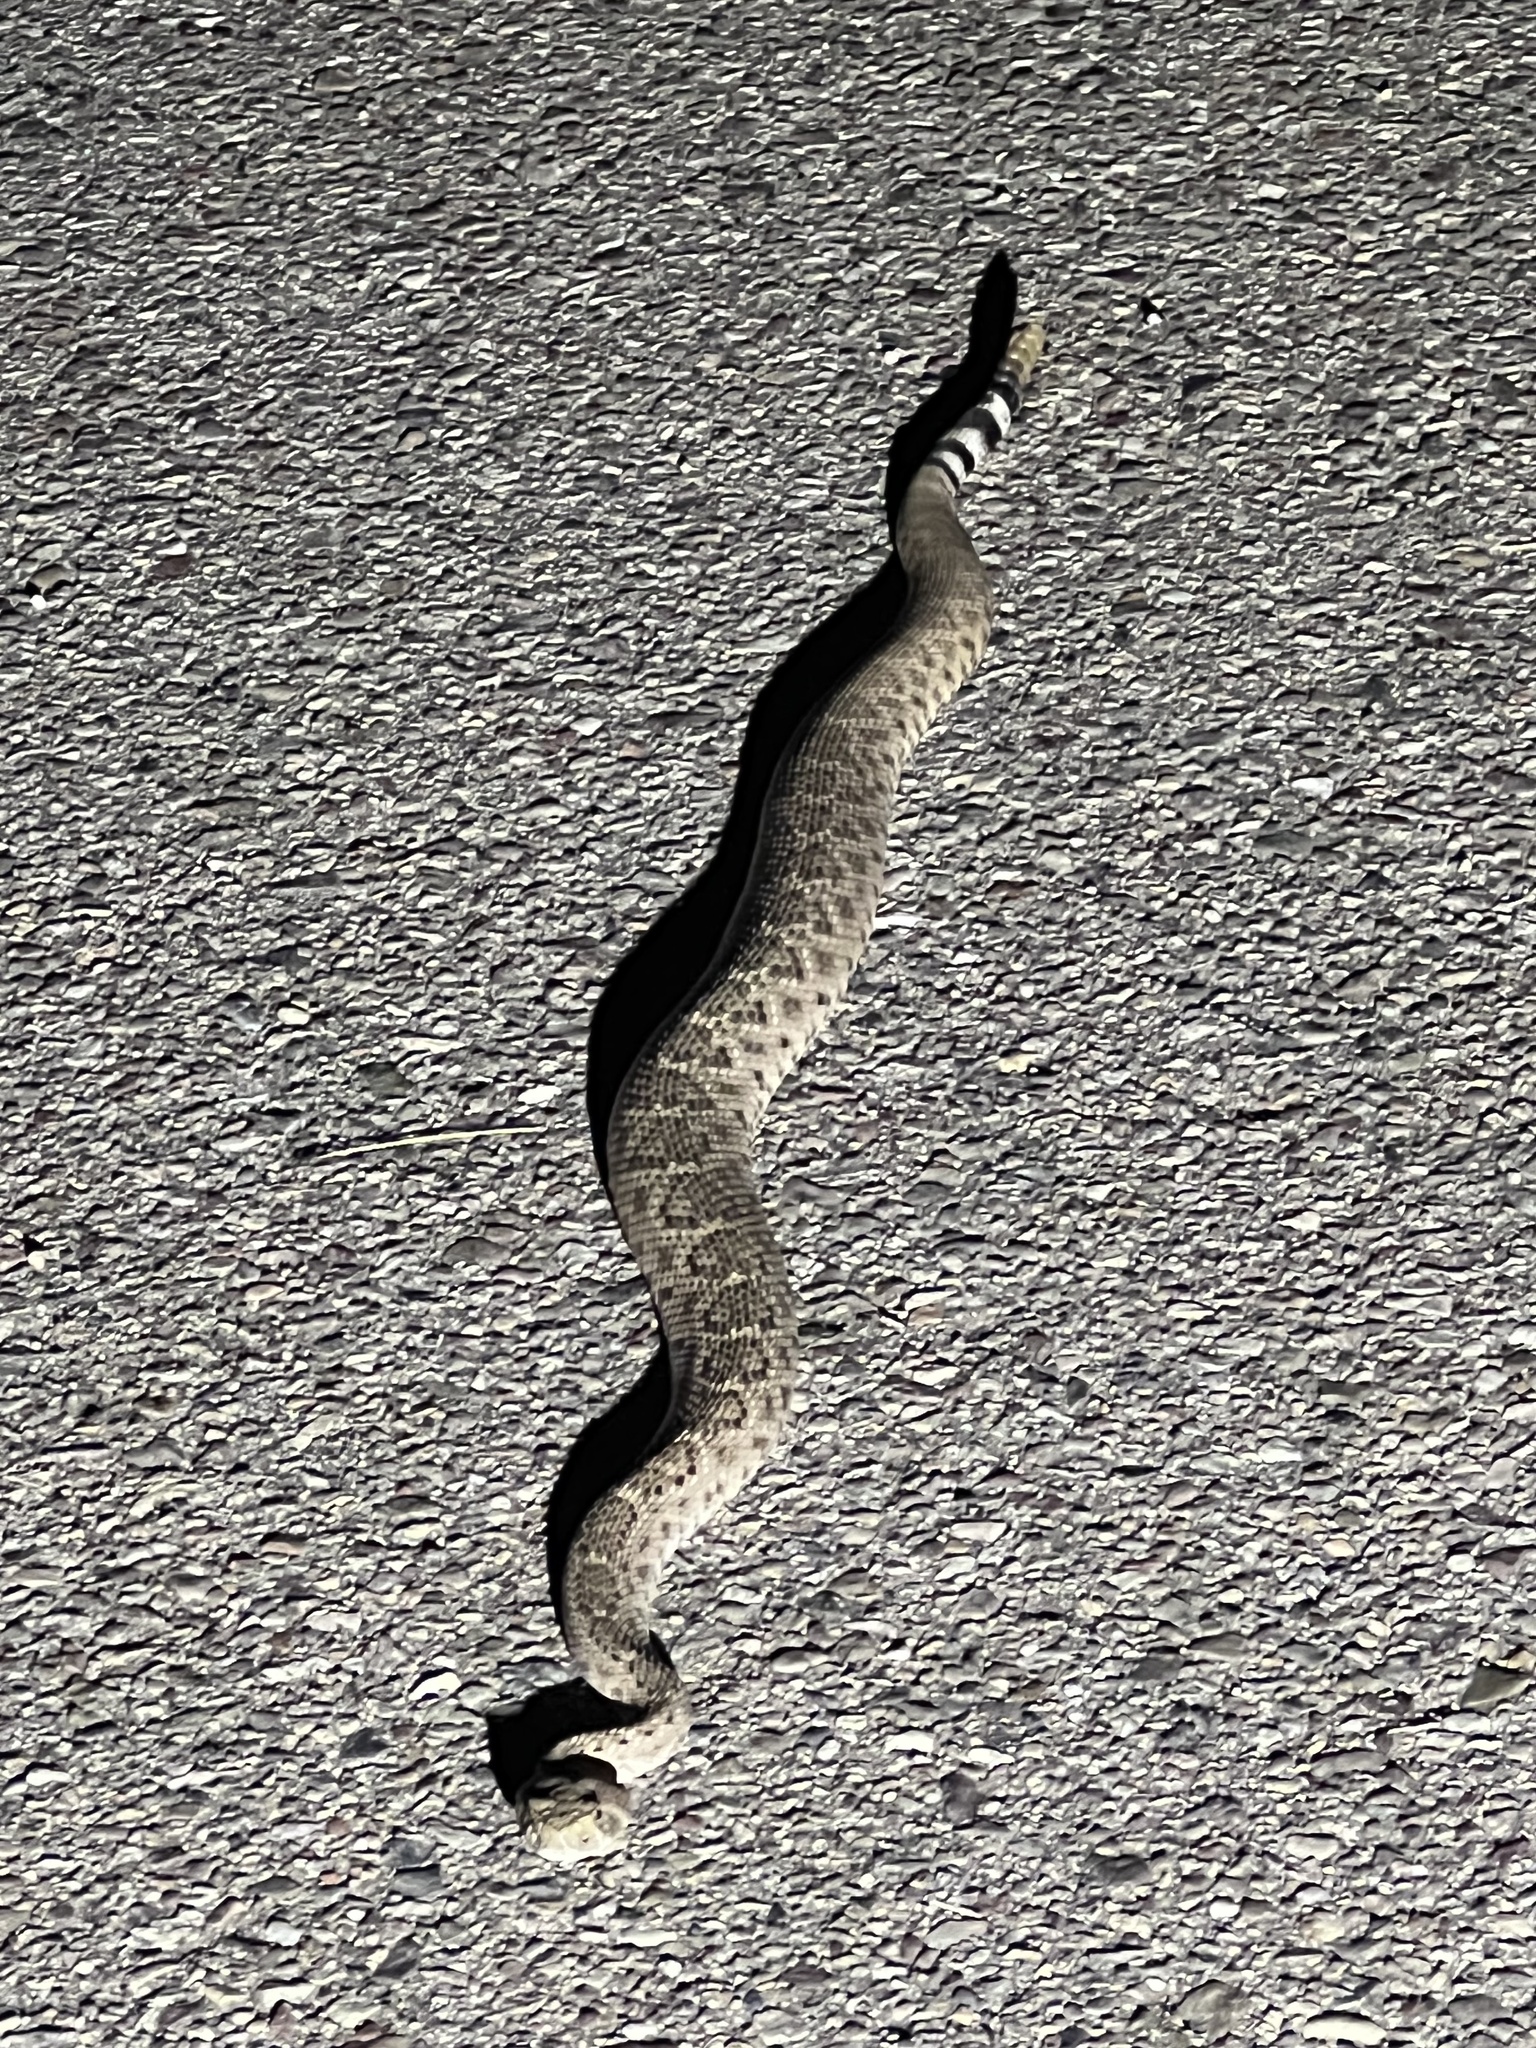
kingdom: Animalia
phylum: Chordata
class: Squamata
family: Viperidae
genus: Crotalus
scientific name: Crotalus atrox
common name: Western diamond-backed rattlesnake
